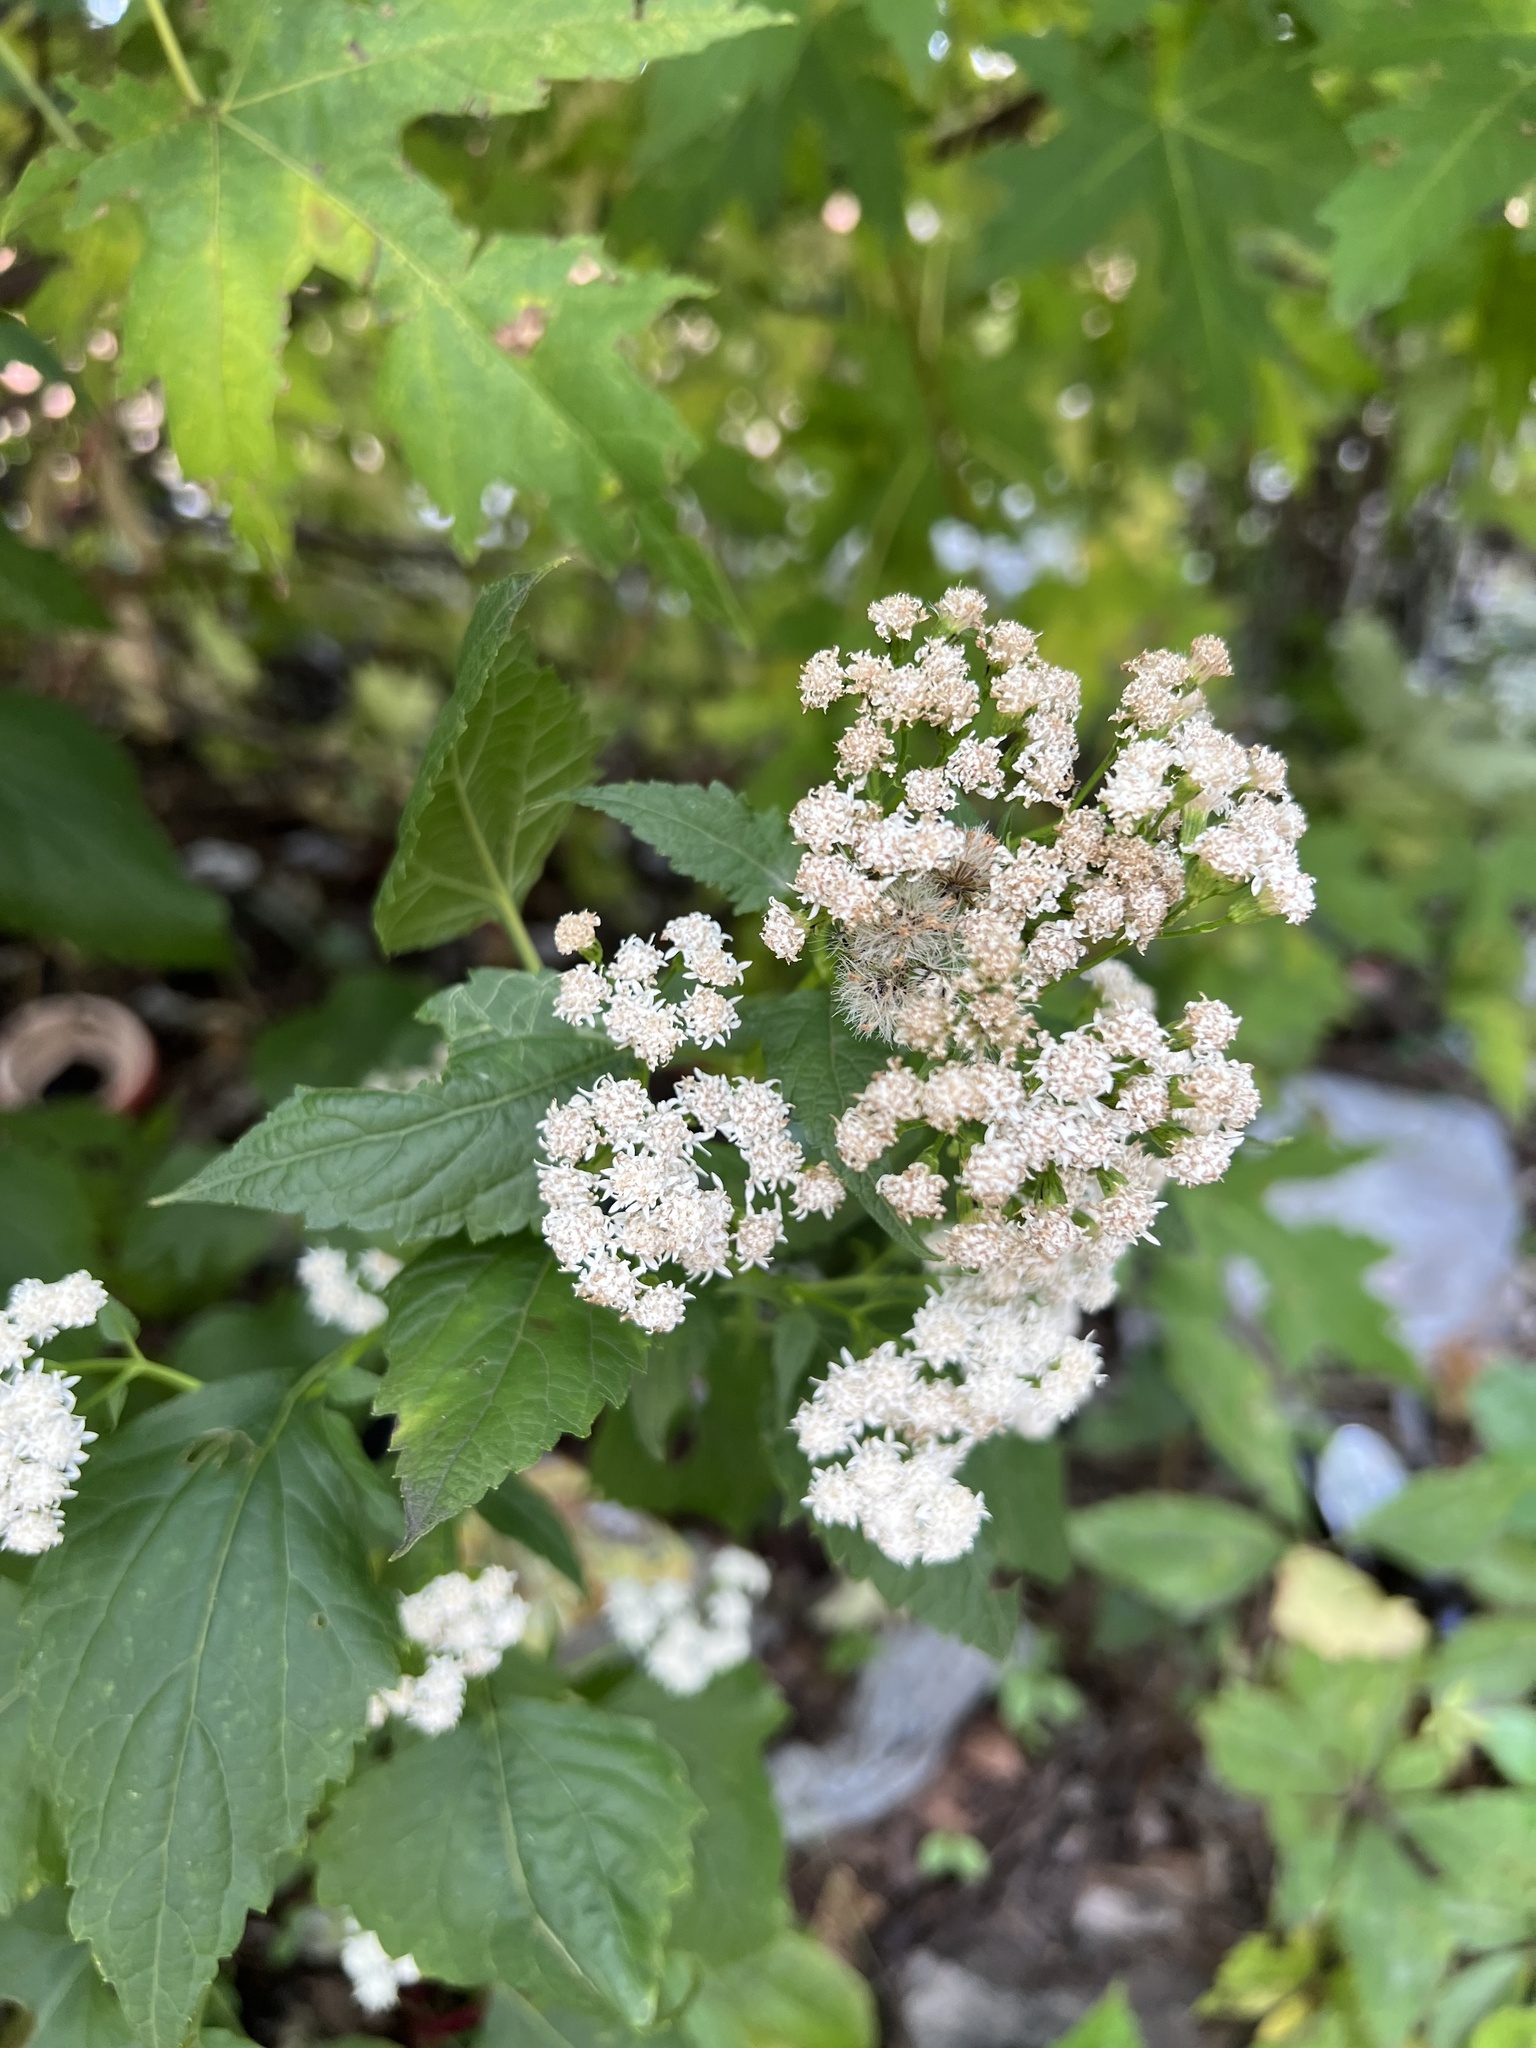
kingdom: Plantae
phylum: Tracheophyta
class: Magnoliopsida
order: Asterales
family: Asteraceae
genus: Ageratina
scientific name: Ageratina altissima
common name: White snakeroot
